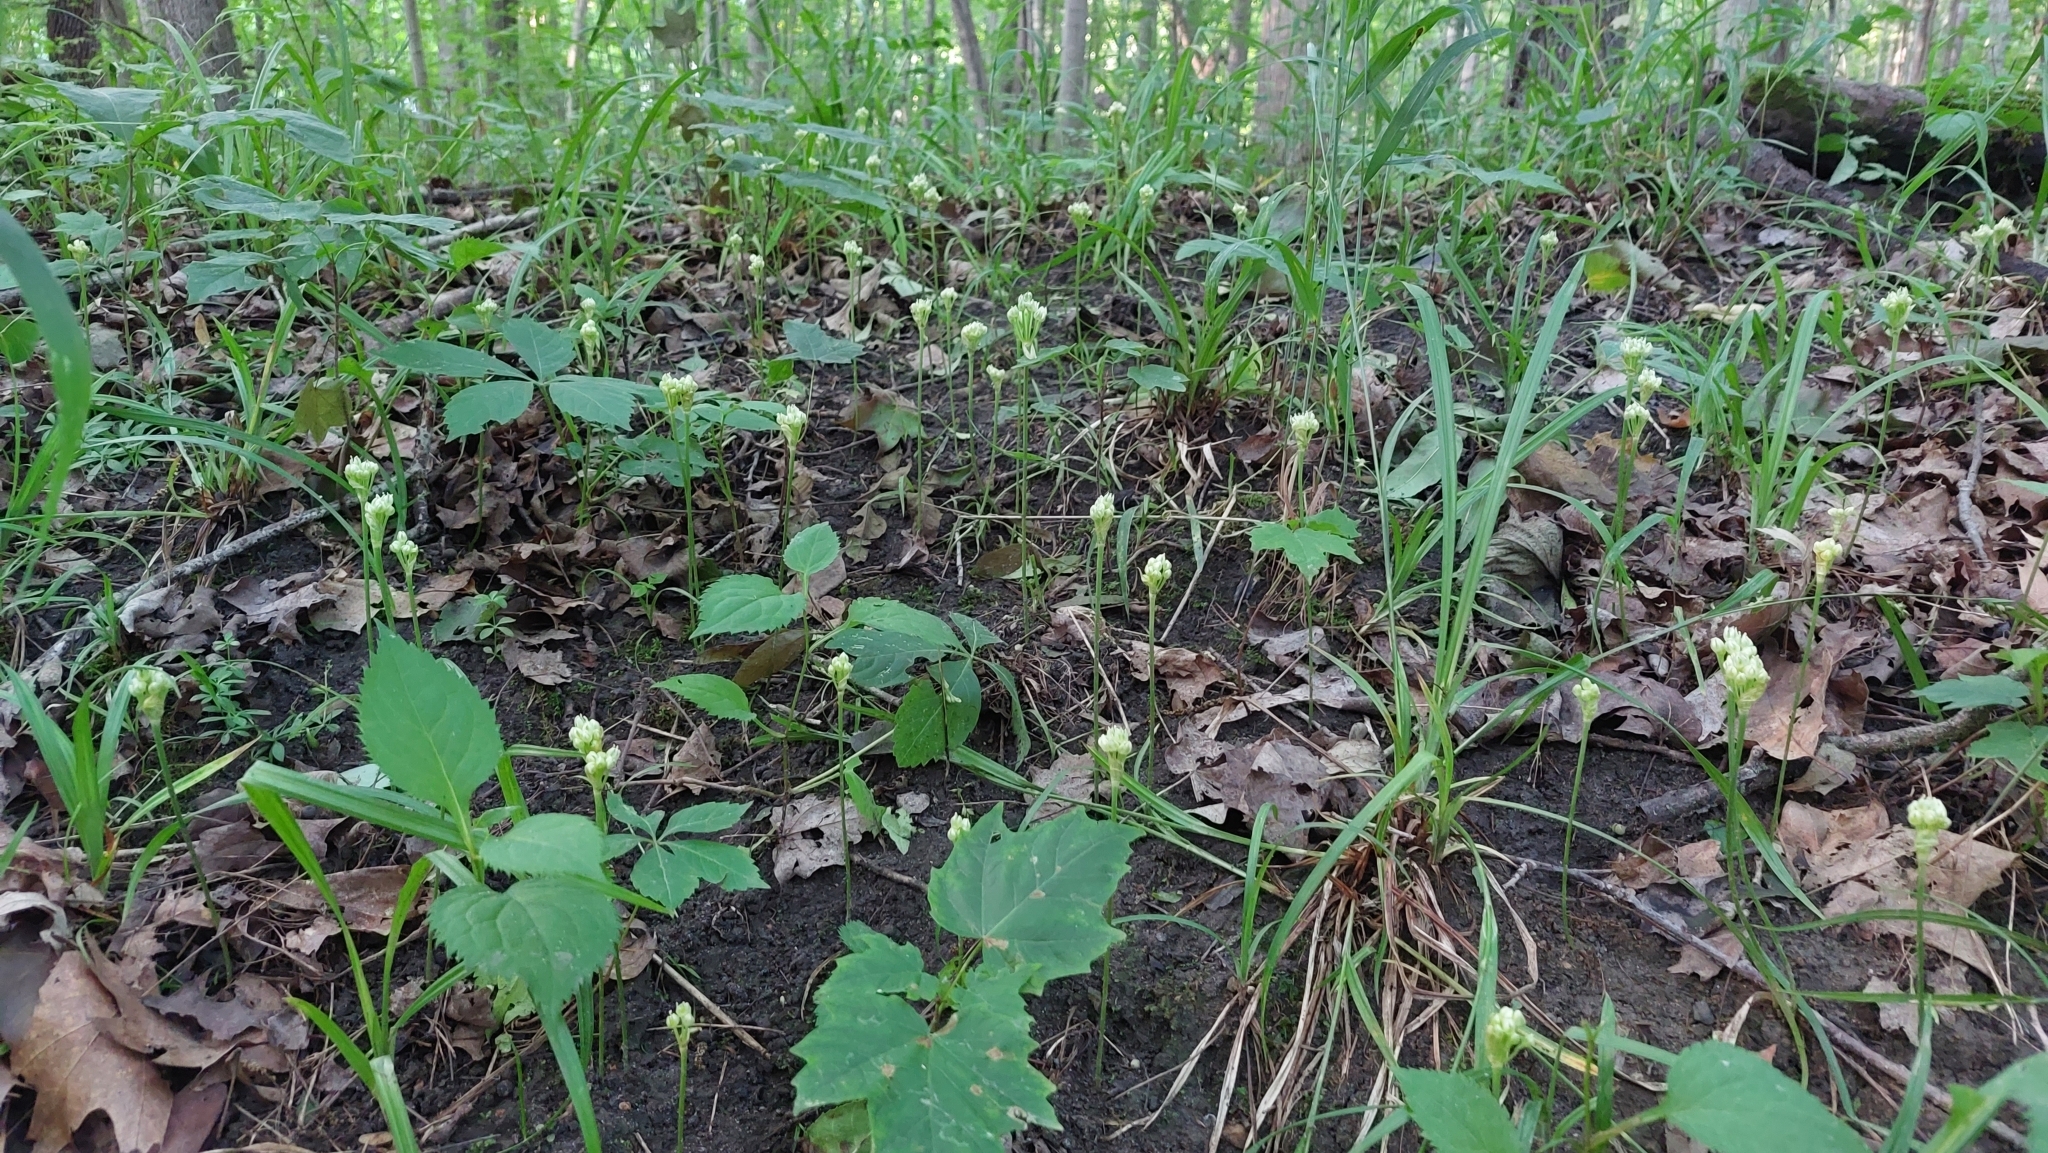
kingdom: Plantae
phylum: Tracheophyta
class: Liliopsida
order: Asparagales
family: Amaryllidaceae
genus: Allium
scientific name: Allium tricoccum
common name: Ramp
